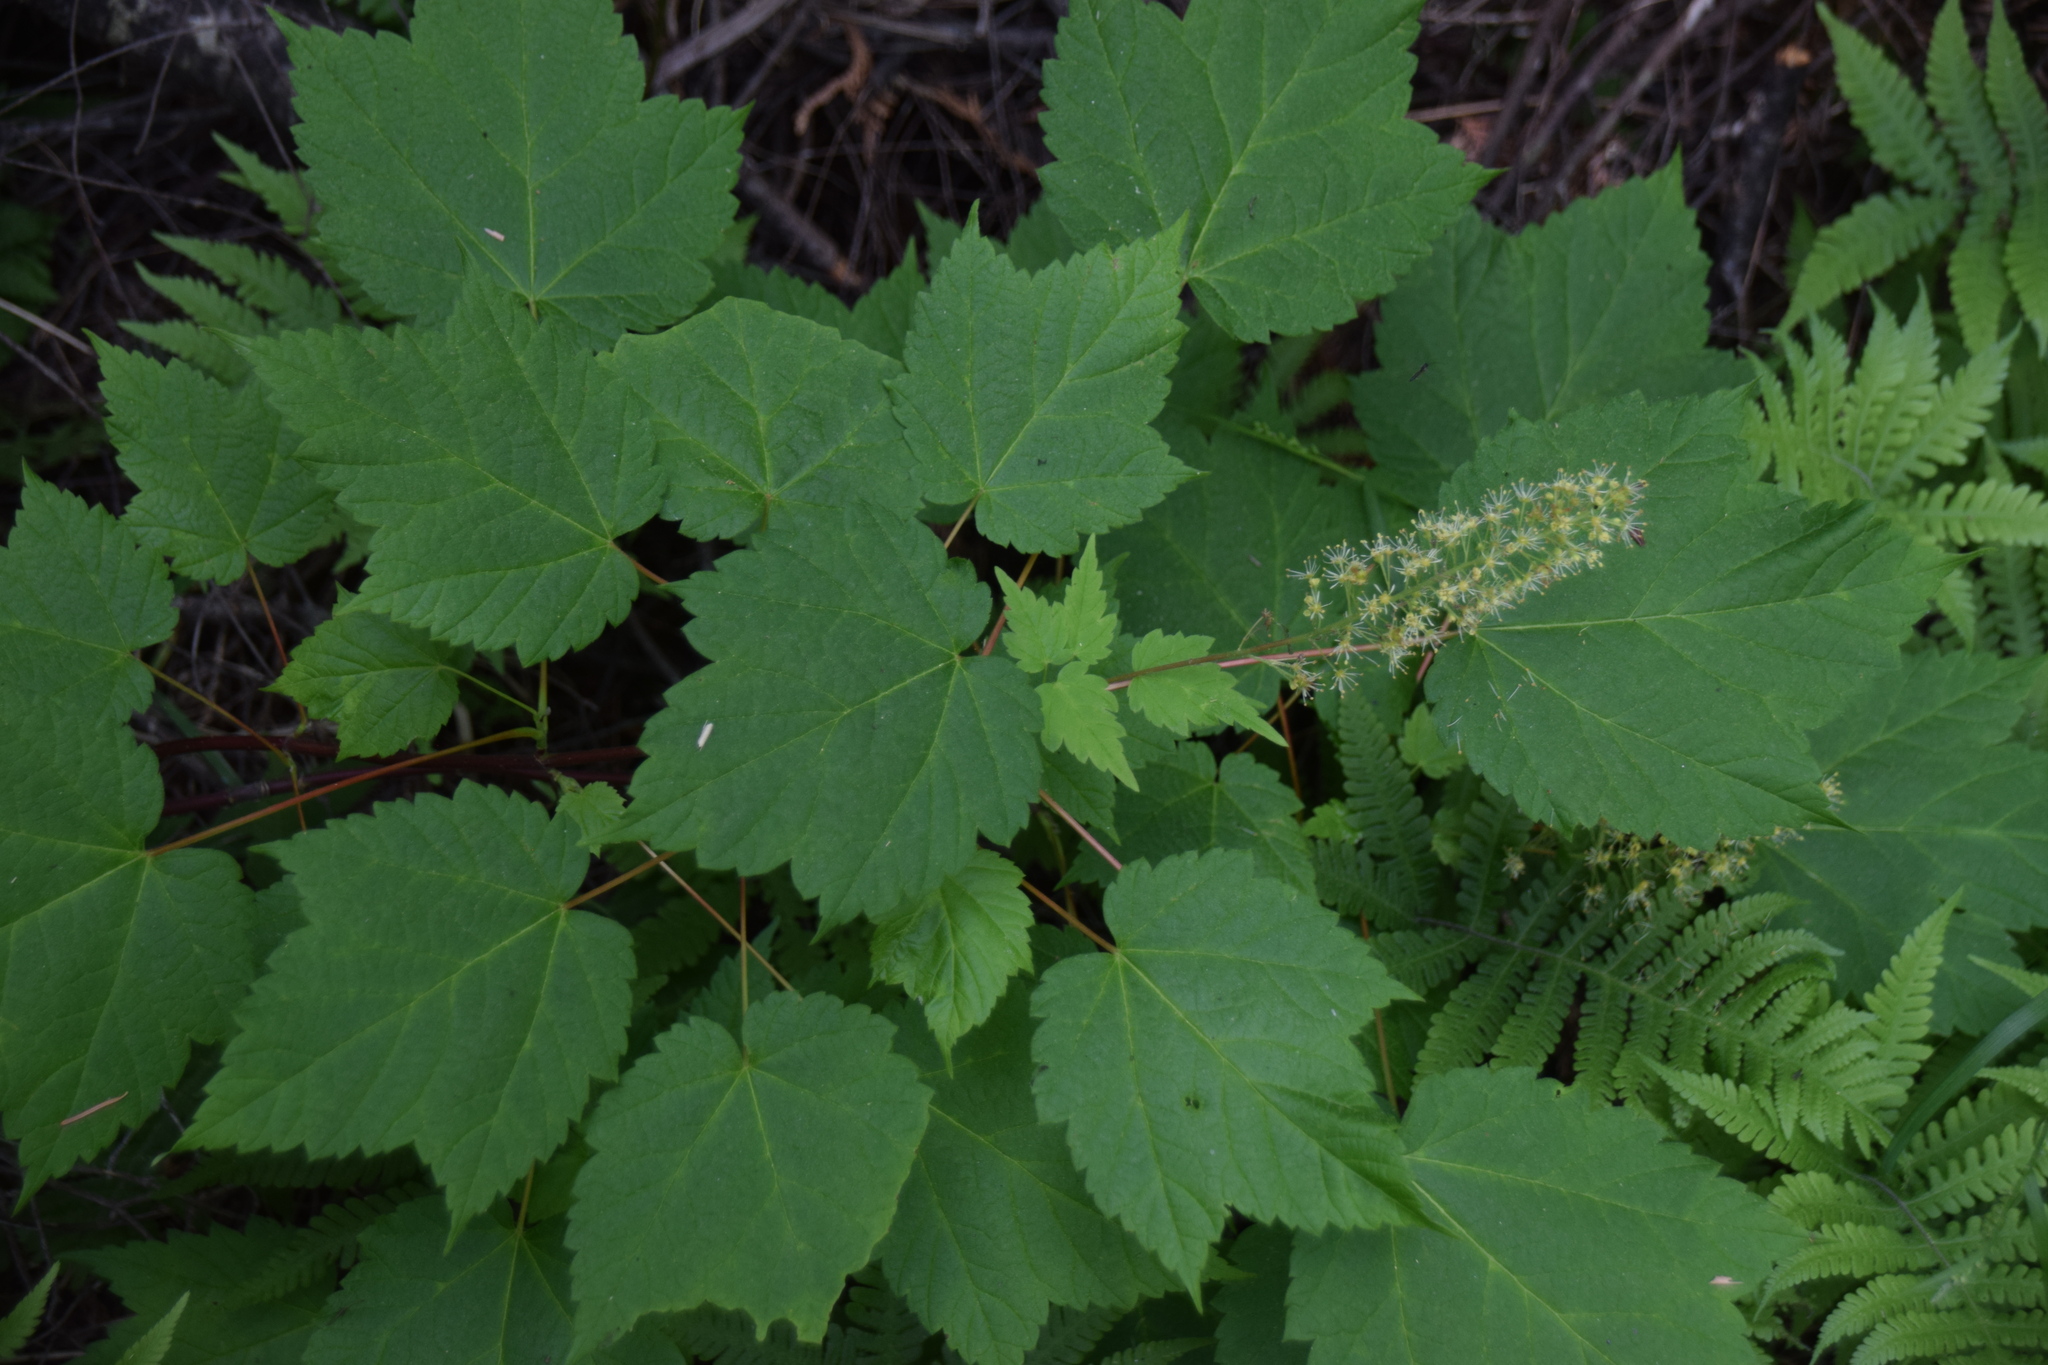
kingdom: Plantae
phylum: Tracheophyta
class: Magnoliopsida
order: Sapindales
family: Sapindaceae
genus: Acer
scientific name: Acer spicatum
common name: Mountain maple
